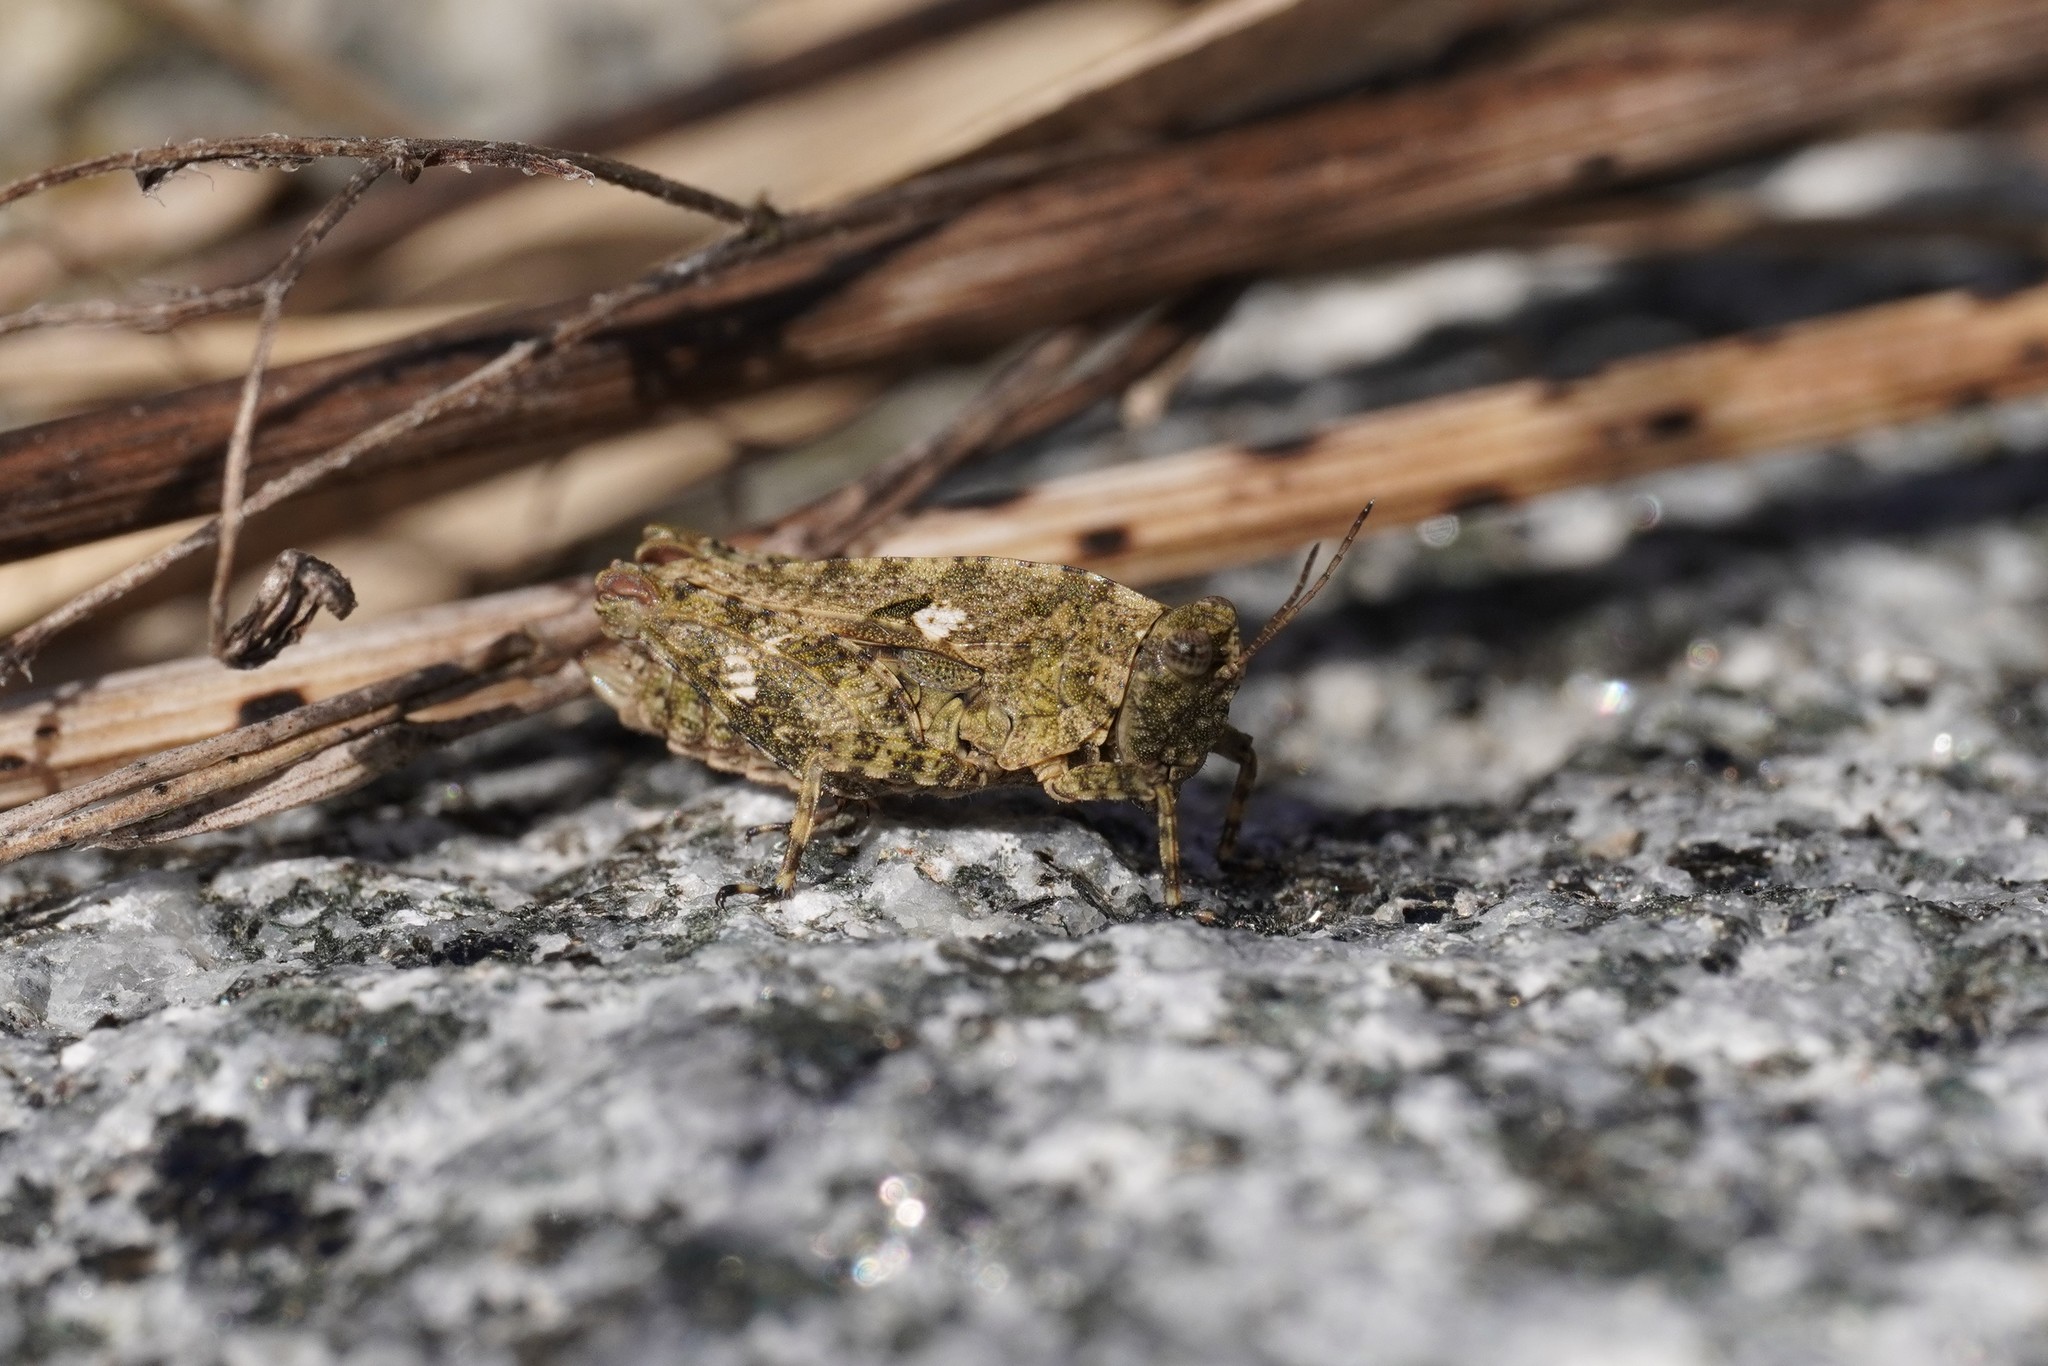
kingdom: Animalia
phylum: Arthropoda
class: Insecta
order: Orthoptera
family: Tetrigidae
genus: Tetrix
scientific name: Tetrix tenuicornis
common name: Long-horned groundhopper
